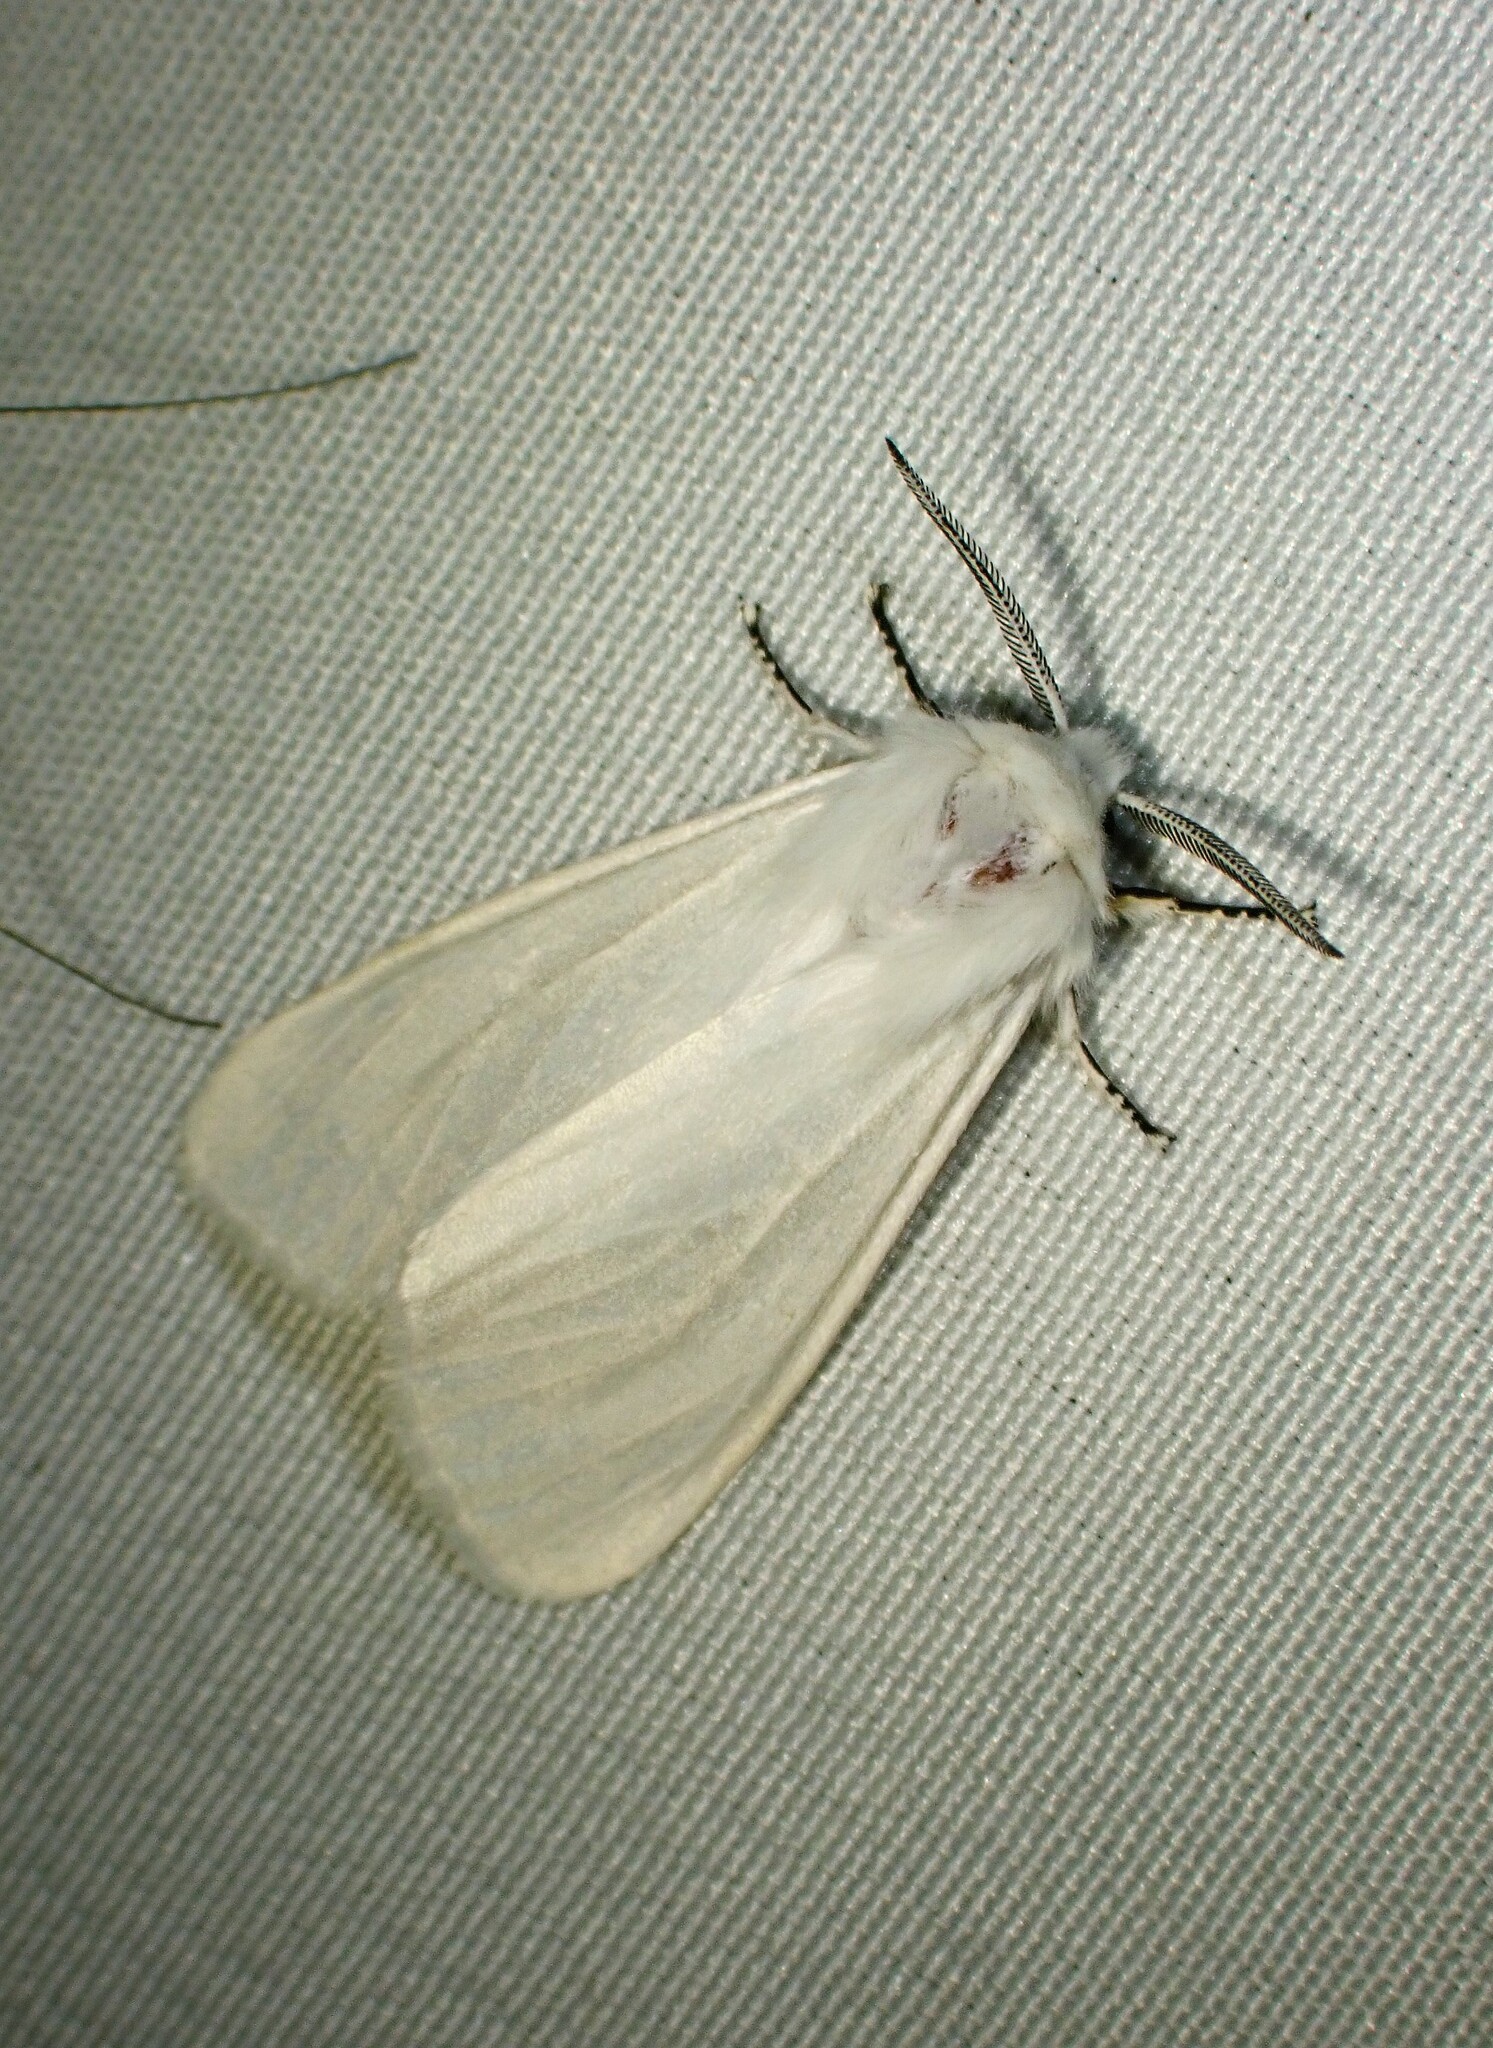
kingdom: Animalia
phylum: Arthropoda
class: Insecta
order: Lepidoptera
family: Erebidae
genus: Hyphantria
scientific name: Hyphantria cunea
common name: American white moth
